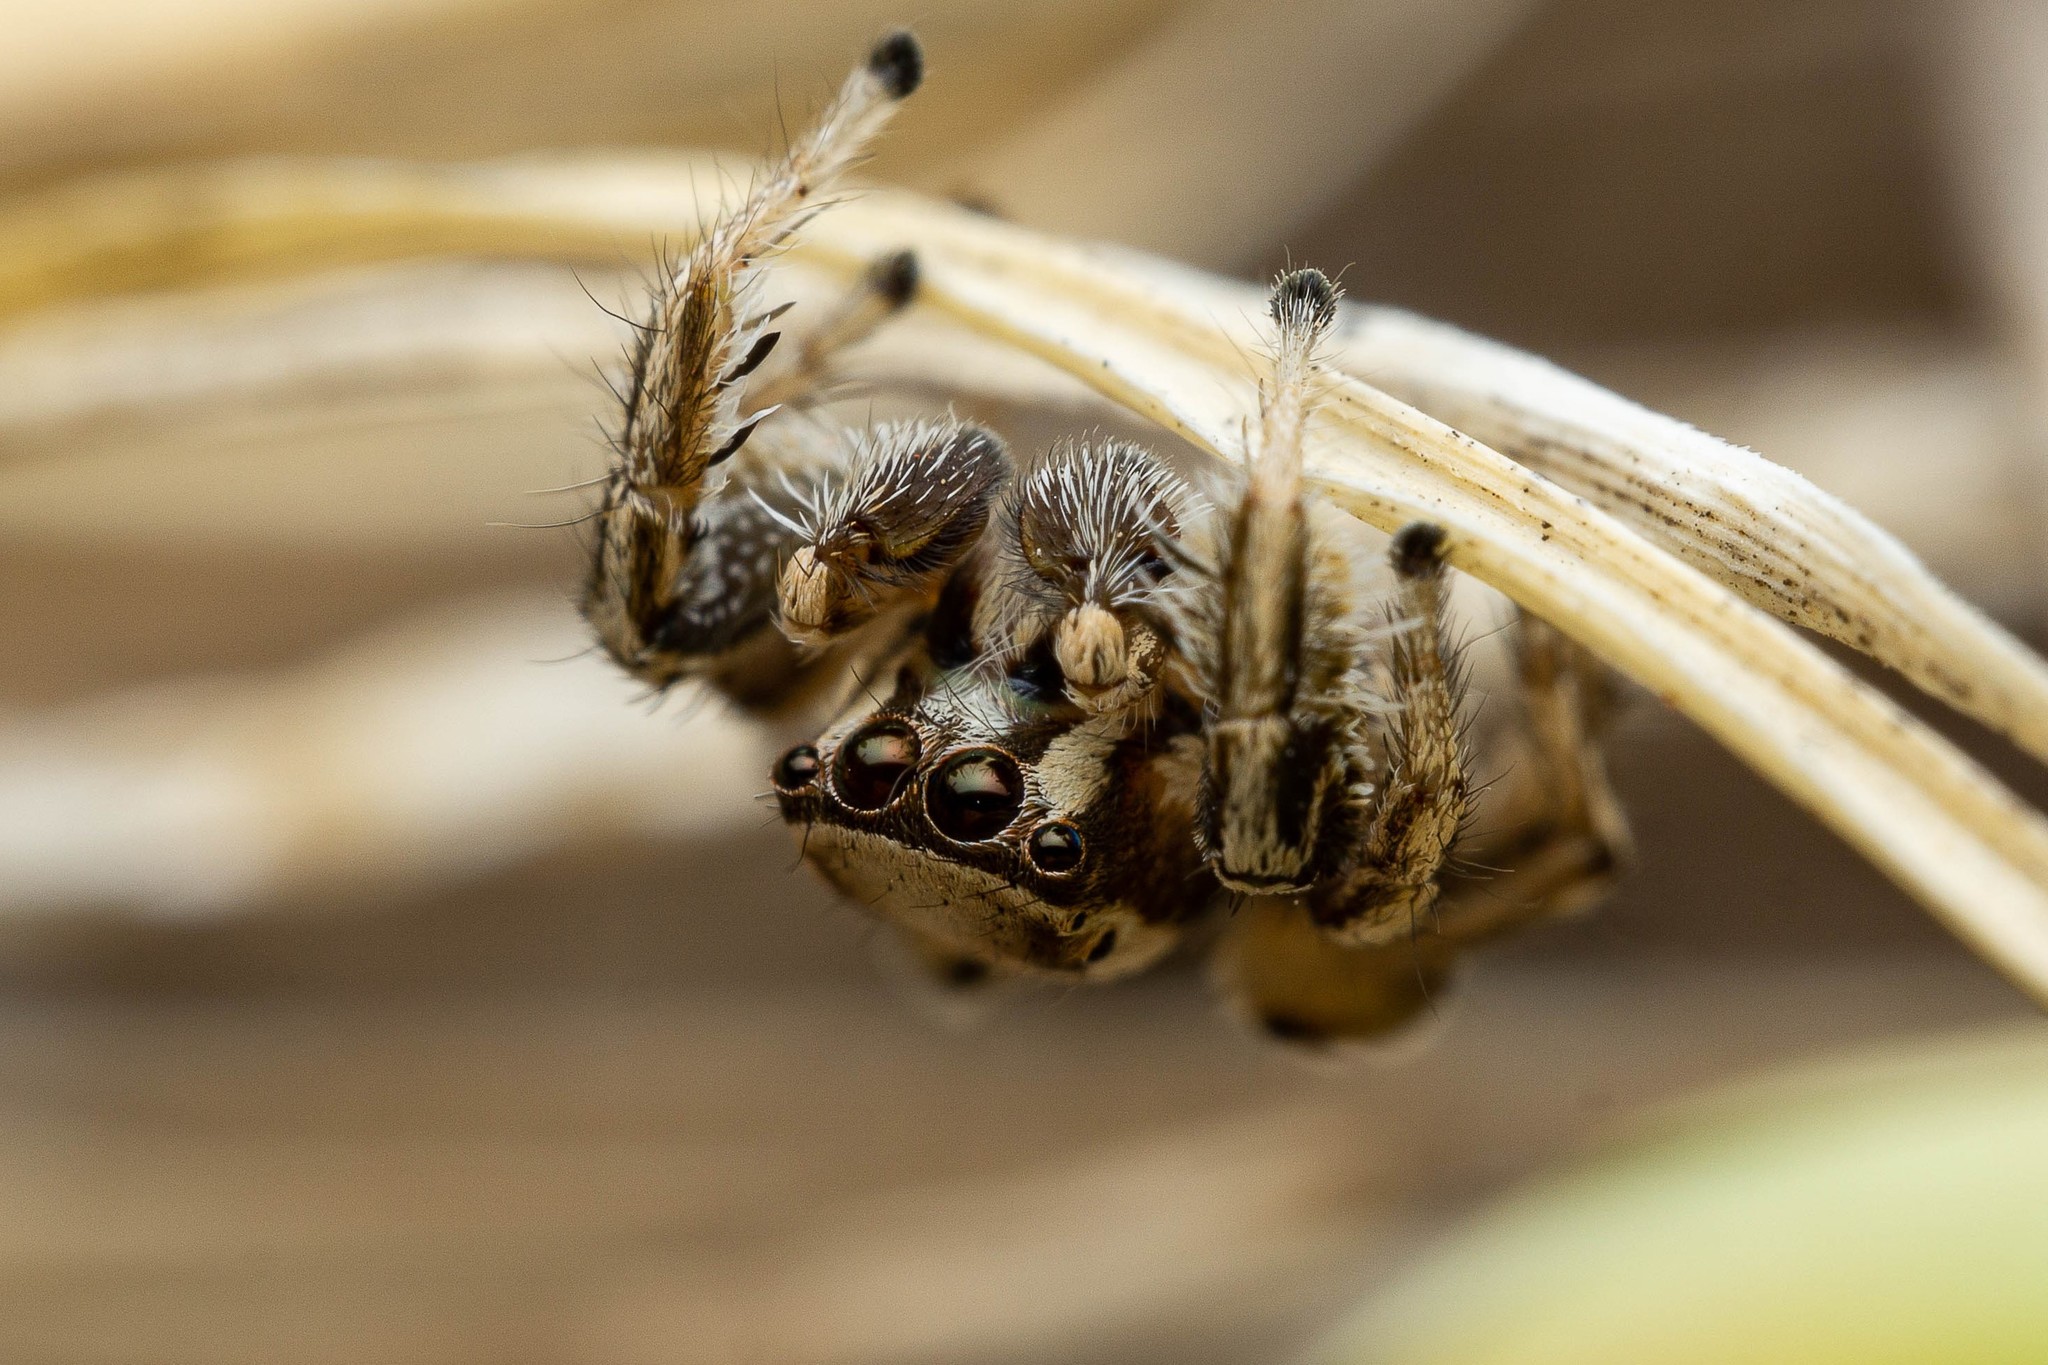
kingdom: Animalia
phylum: Arthropoda
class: Arachnida
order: Araneae
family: Salticidae
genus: Habronattus
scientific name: Habronattus formosus
